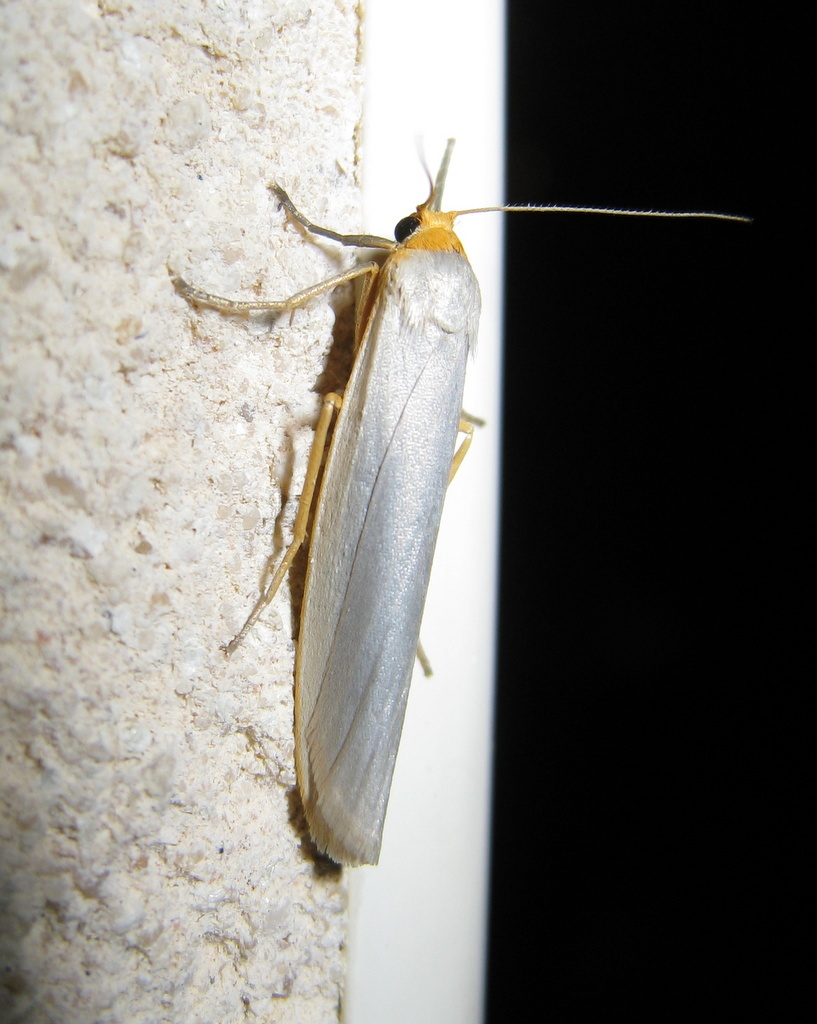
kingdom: Animalia
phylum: Arthropoda
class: Insecta
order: Lepidoptera
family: Erebidae
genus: Eilema
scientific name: Eilema caniola
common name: Hoary footman
